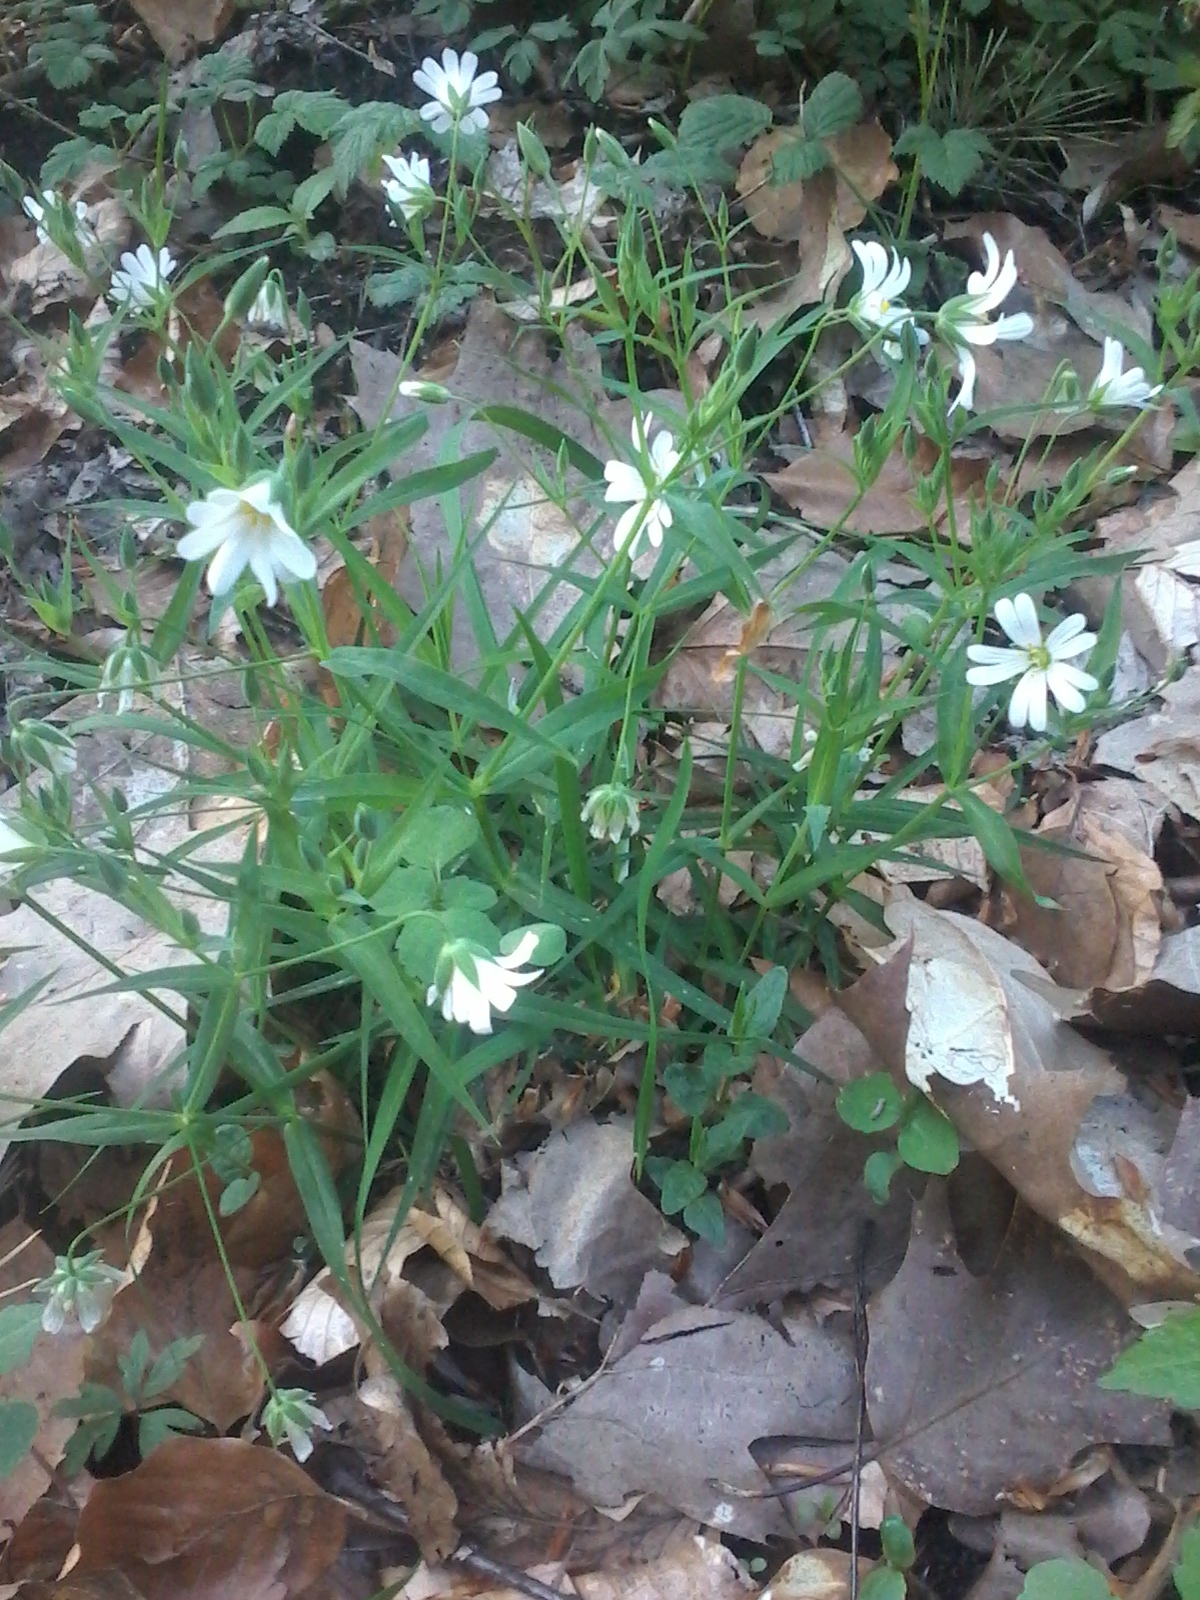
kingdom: Plantae
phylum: Tracheophyta
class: Magnoliopsida
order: Caryophyllales
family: Caryophyllaceae
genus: Rabelera
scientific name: Rabelera holostea
